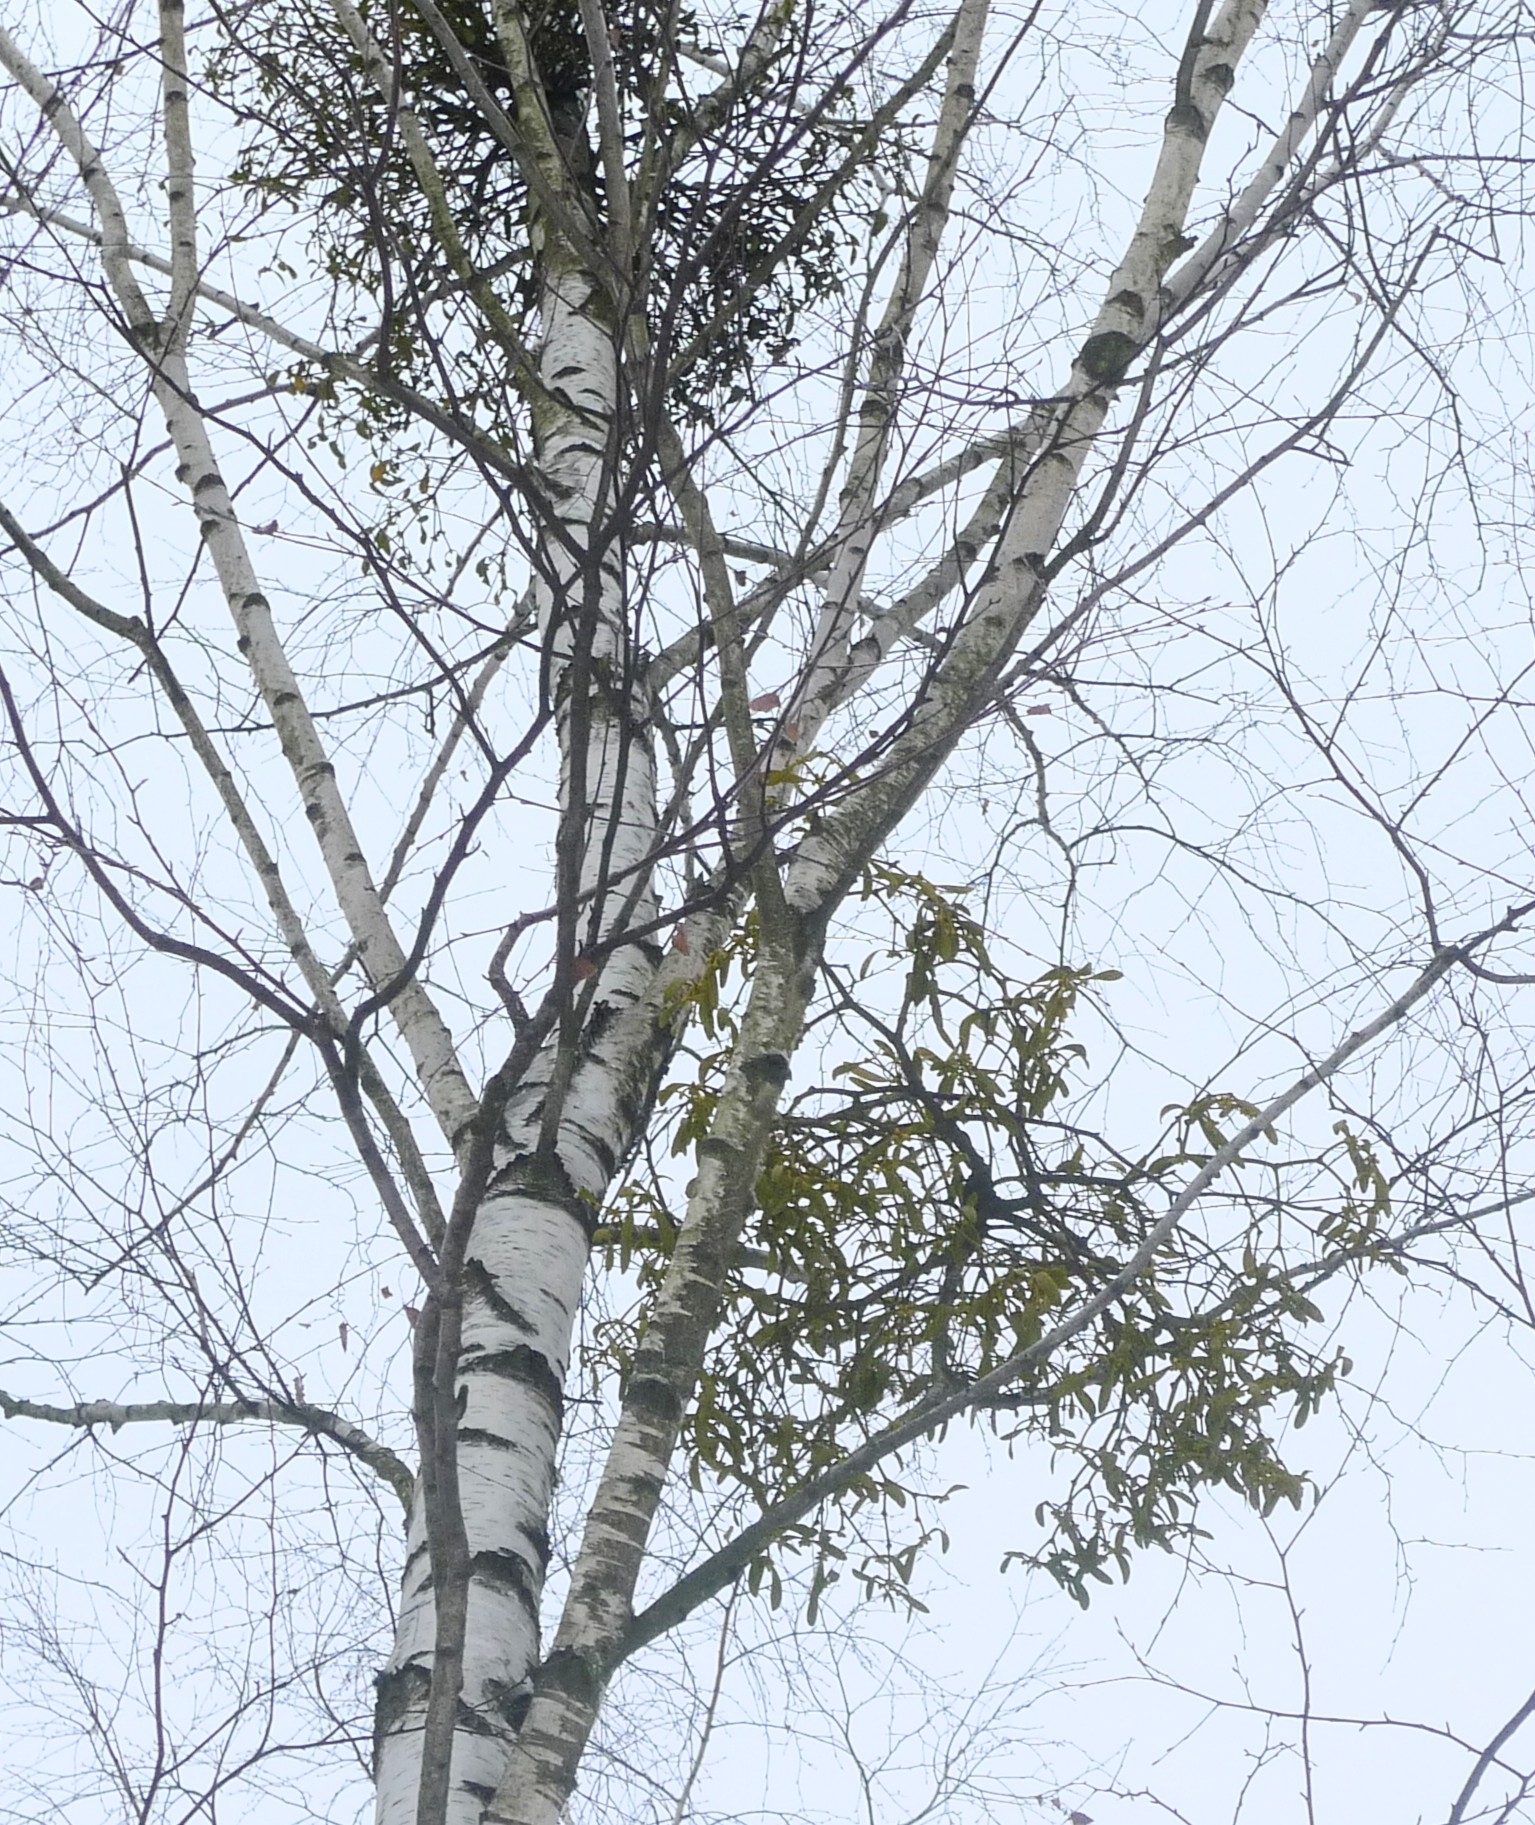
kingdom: Plantae
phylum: Tracheophyta
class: Magnoliopsida
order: Santalales
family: Viscaceae
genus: Viscum
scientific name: Viscum album
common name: Mistletoe
